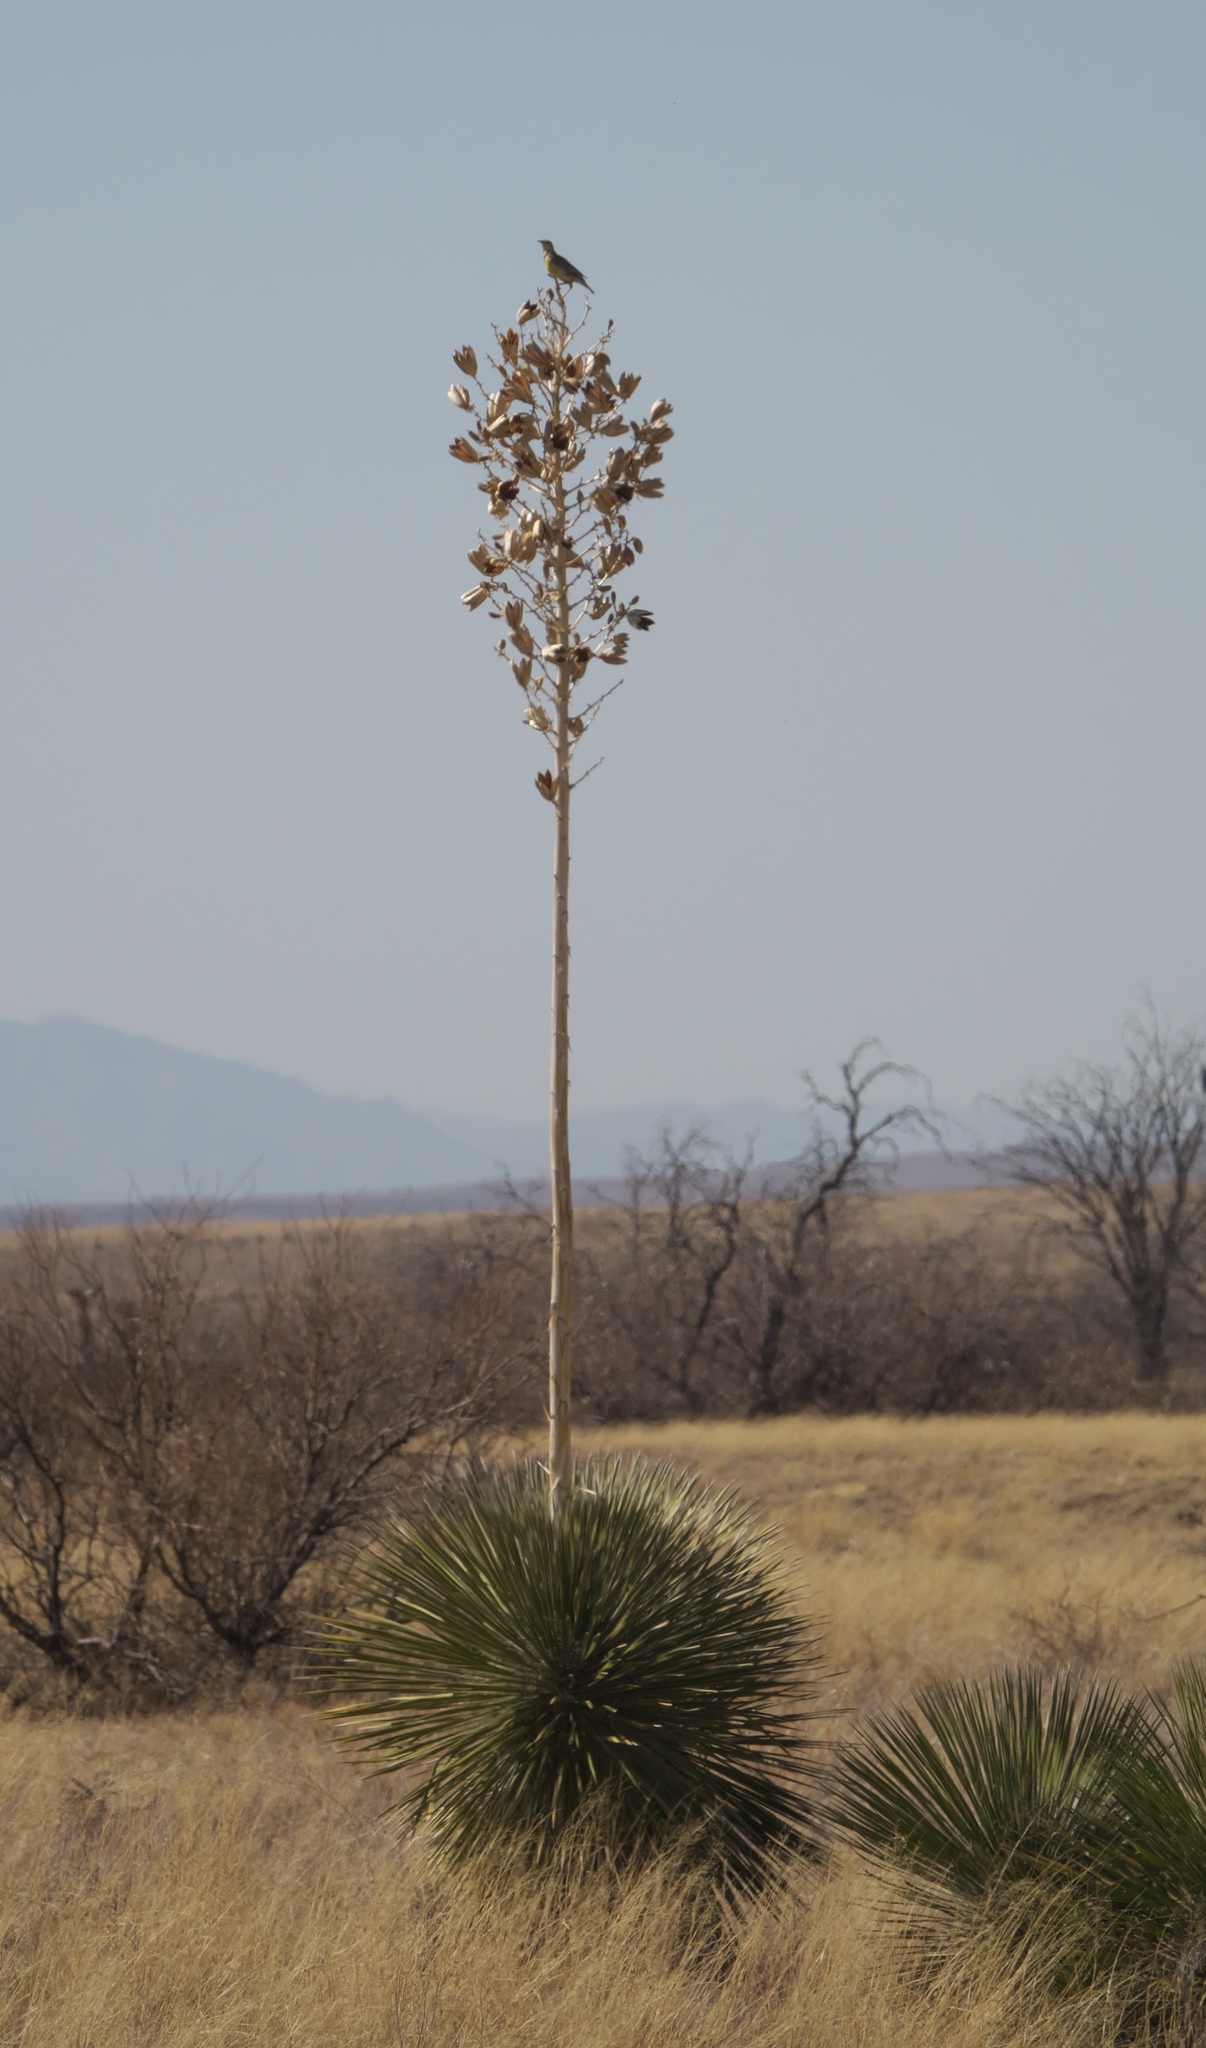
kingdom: Plantae
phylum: Tracheophyta
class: Liliopsida
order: Asparagales
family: Asparagaceae
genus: Yucca
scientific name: Yucca elata
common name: Palmella
